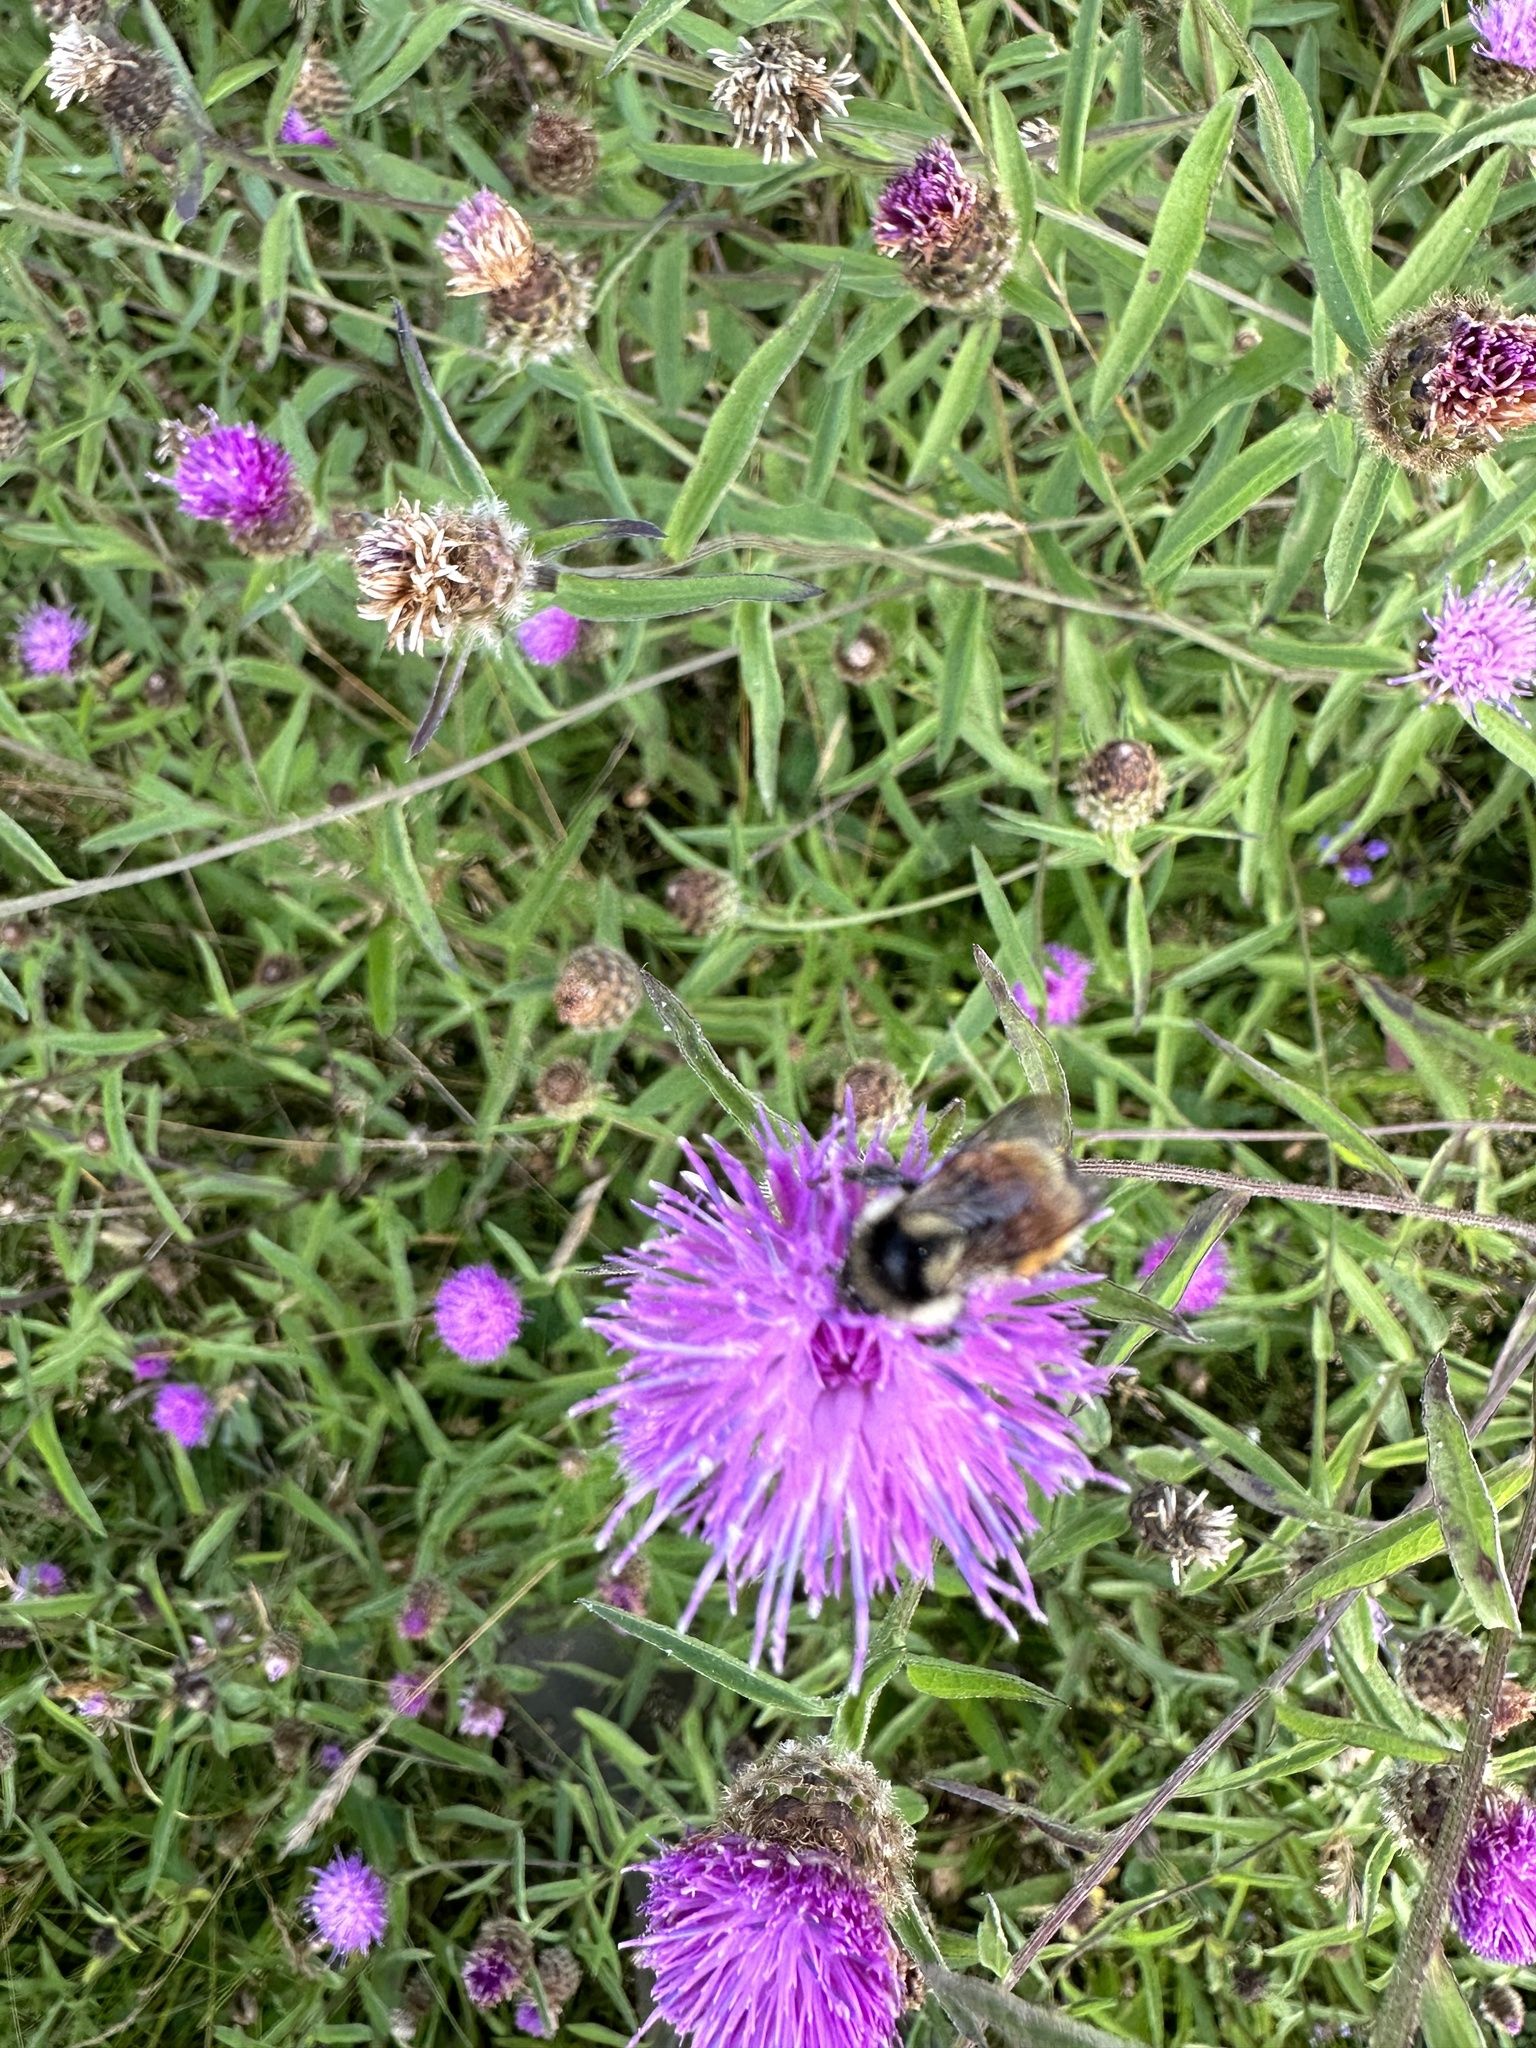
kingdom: Animalia
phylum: Arthropoda
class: Insecta
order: Hymenoptera
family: Apidae
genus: Bombus
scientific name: Bombus ternarius
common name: Tri-colored bumble bee
